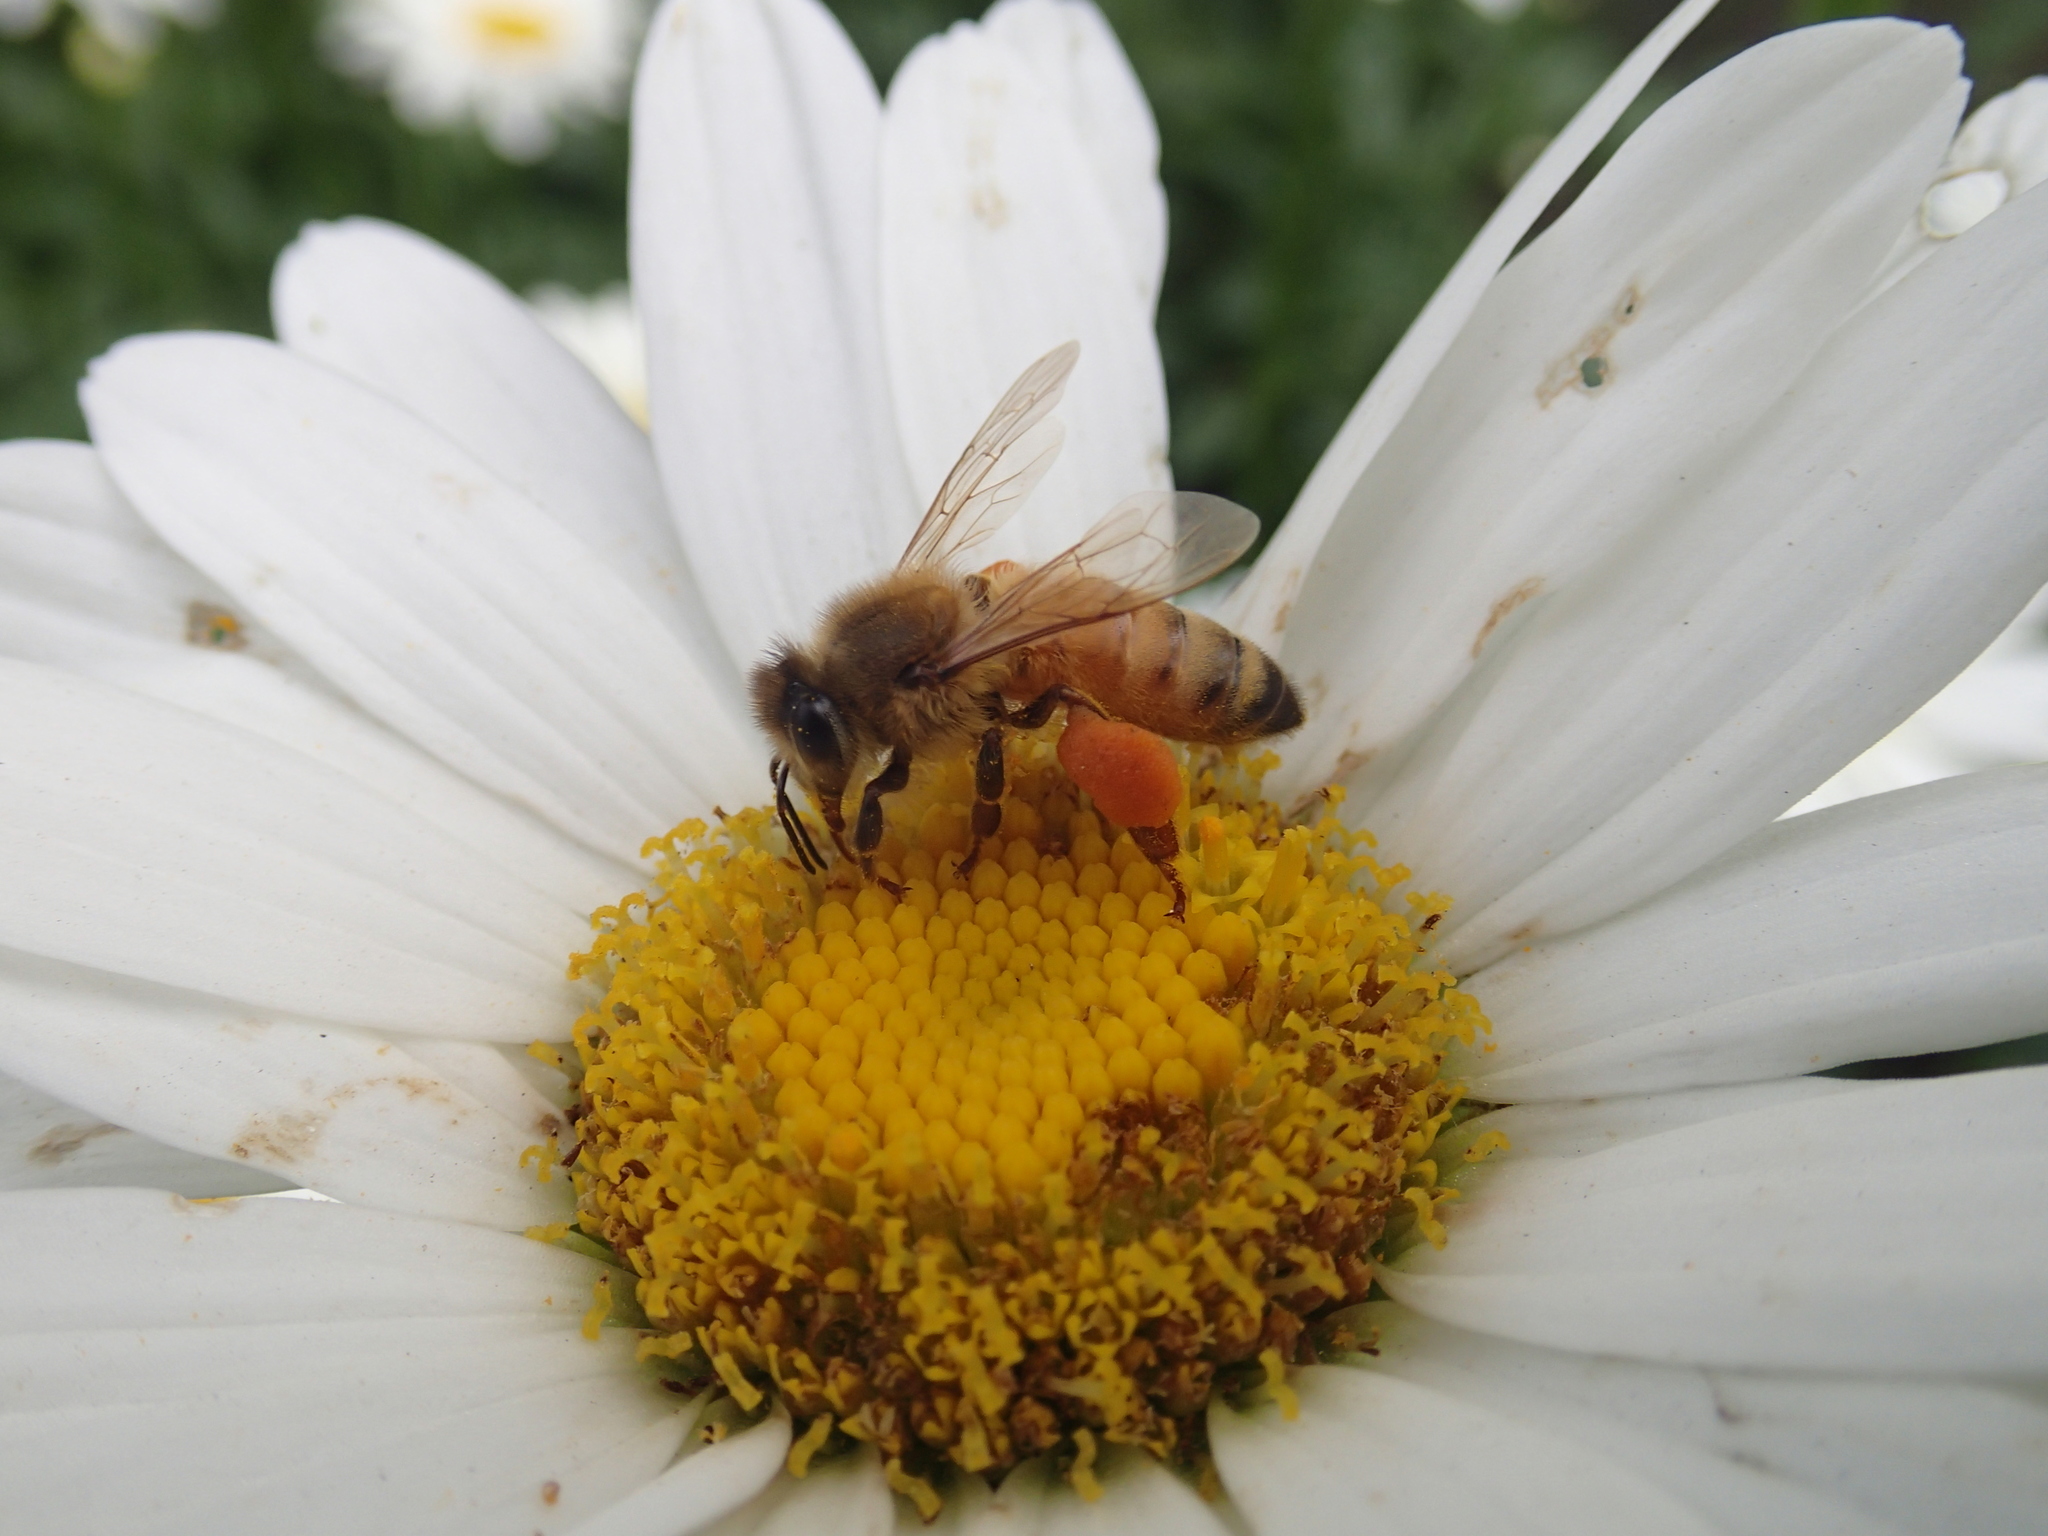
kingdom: Animalia
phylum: Arthropoda
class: Insecta
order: Hymenoptera
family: Apidae
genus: Apis
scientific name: Apis mellifera
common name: Honey bee
